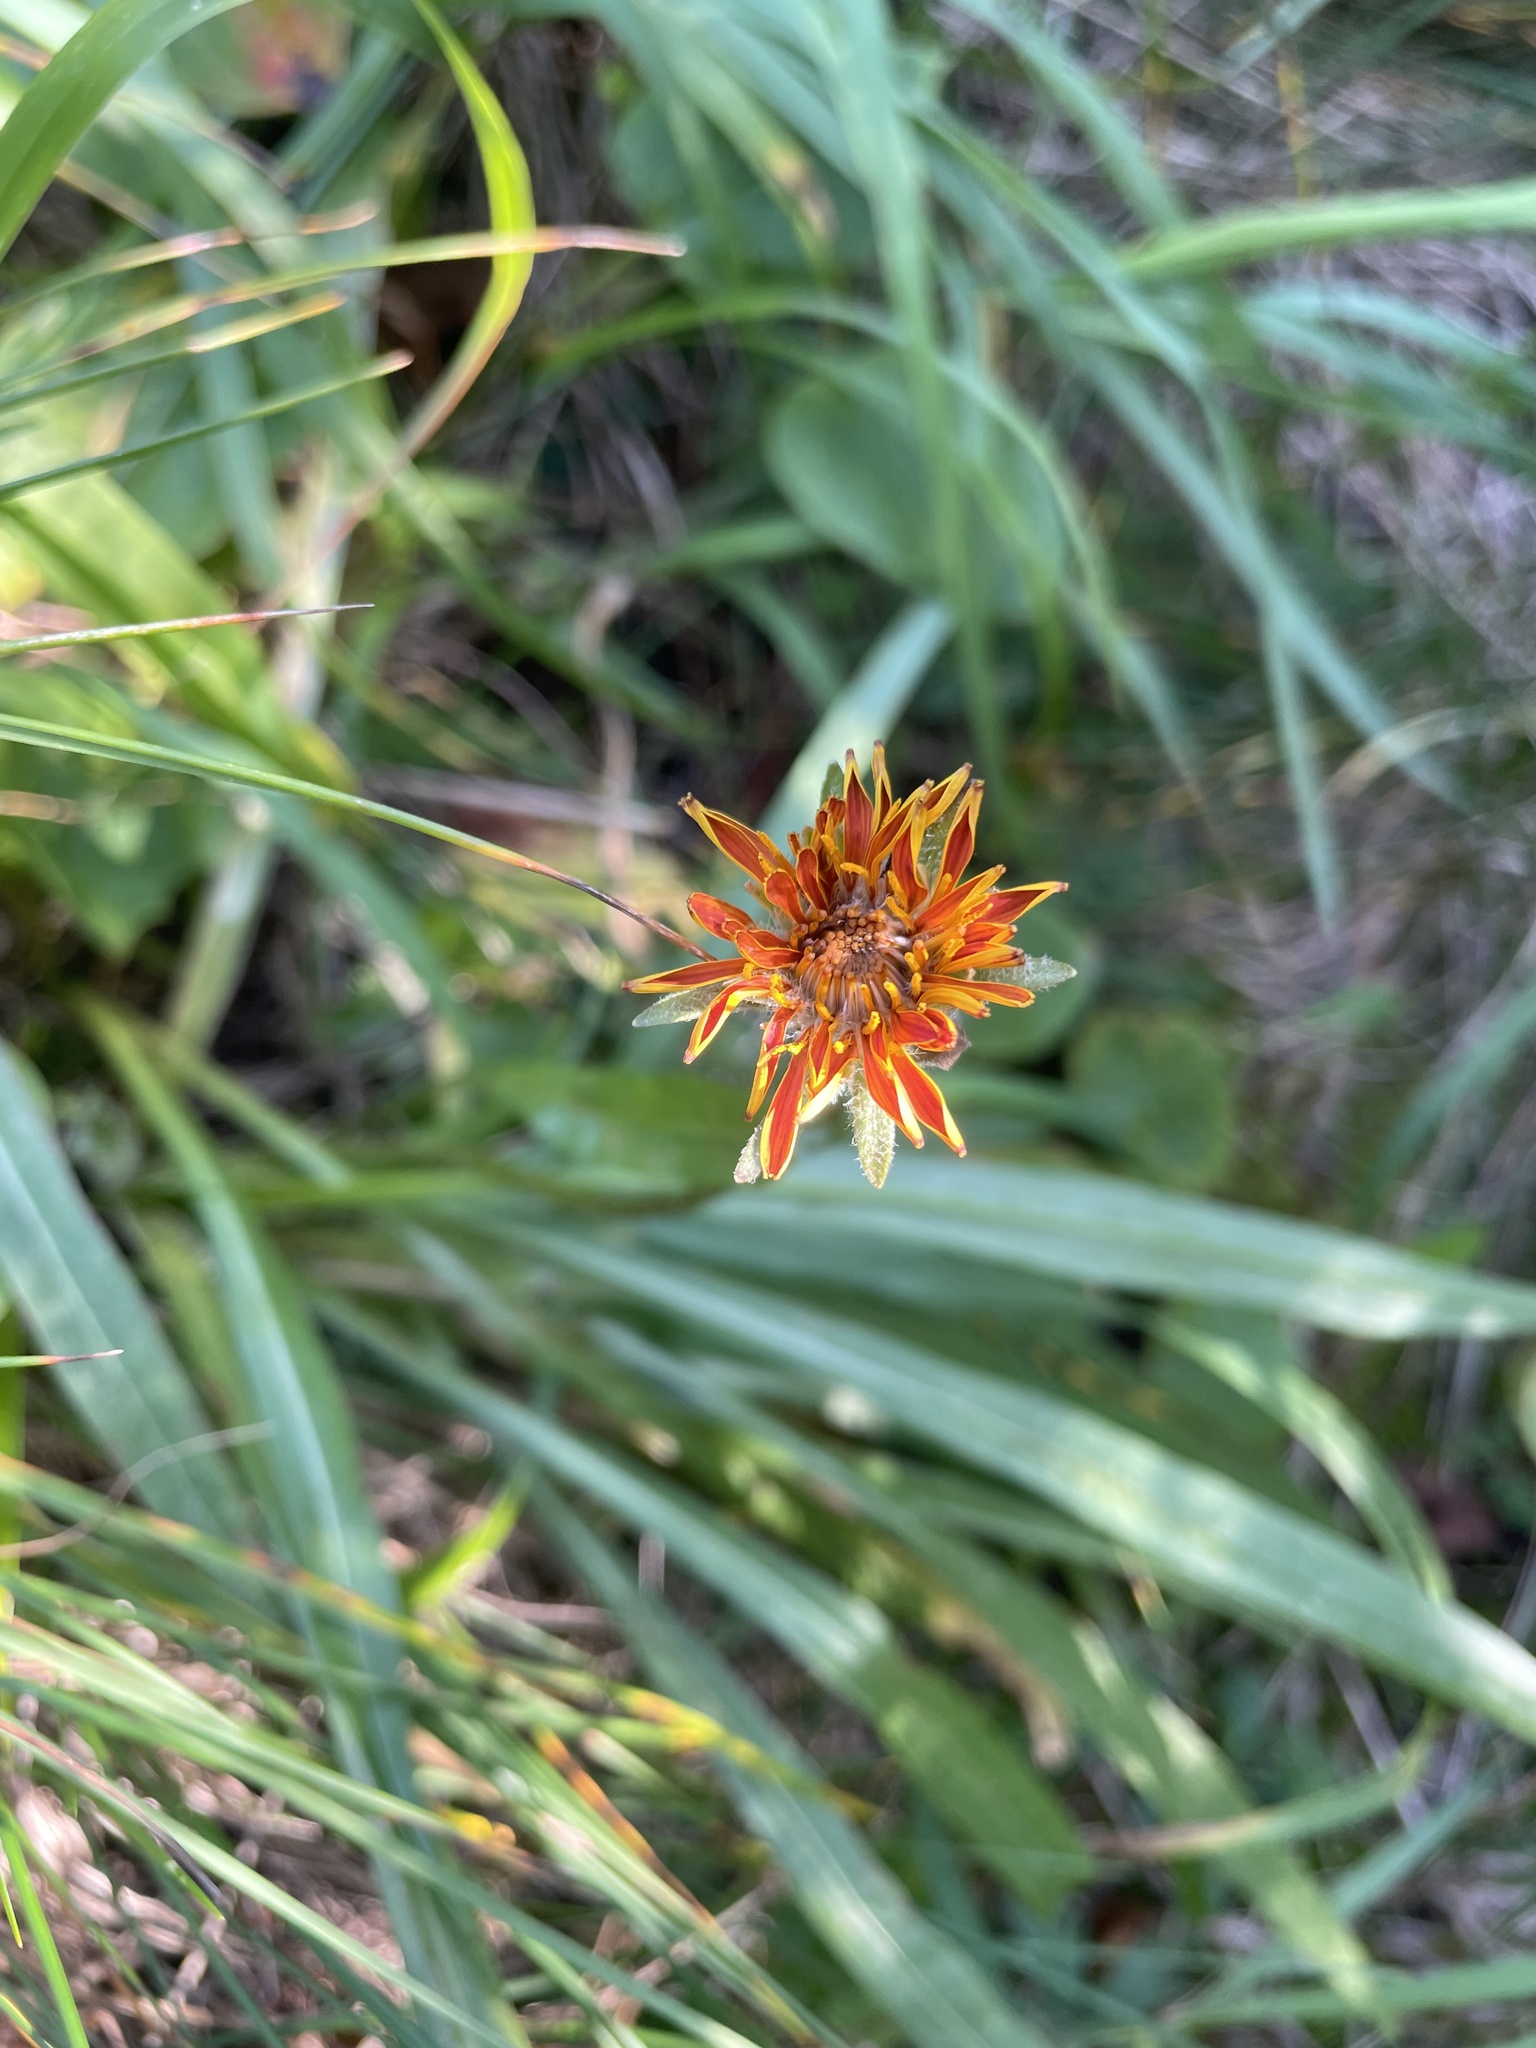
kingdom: Plantae
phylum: Tracheophyta
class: Magnoliopsida
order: Asterales
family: Asteraceae
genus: Agoseris
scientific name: Agoseris aurantiaca
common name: Mountain agoseris
